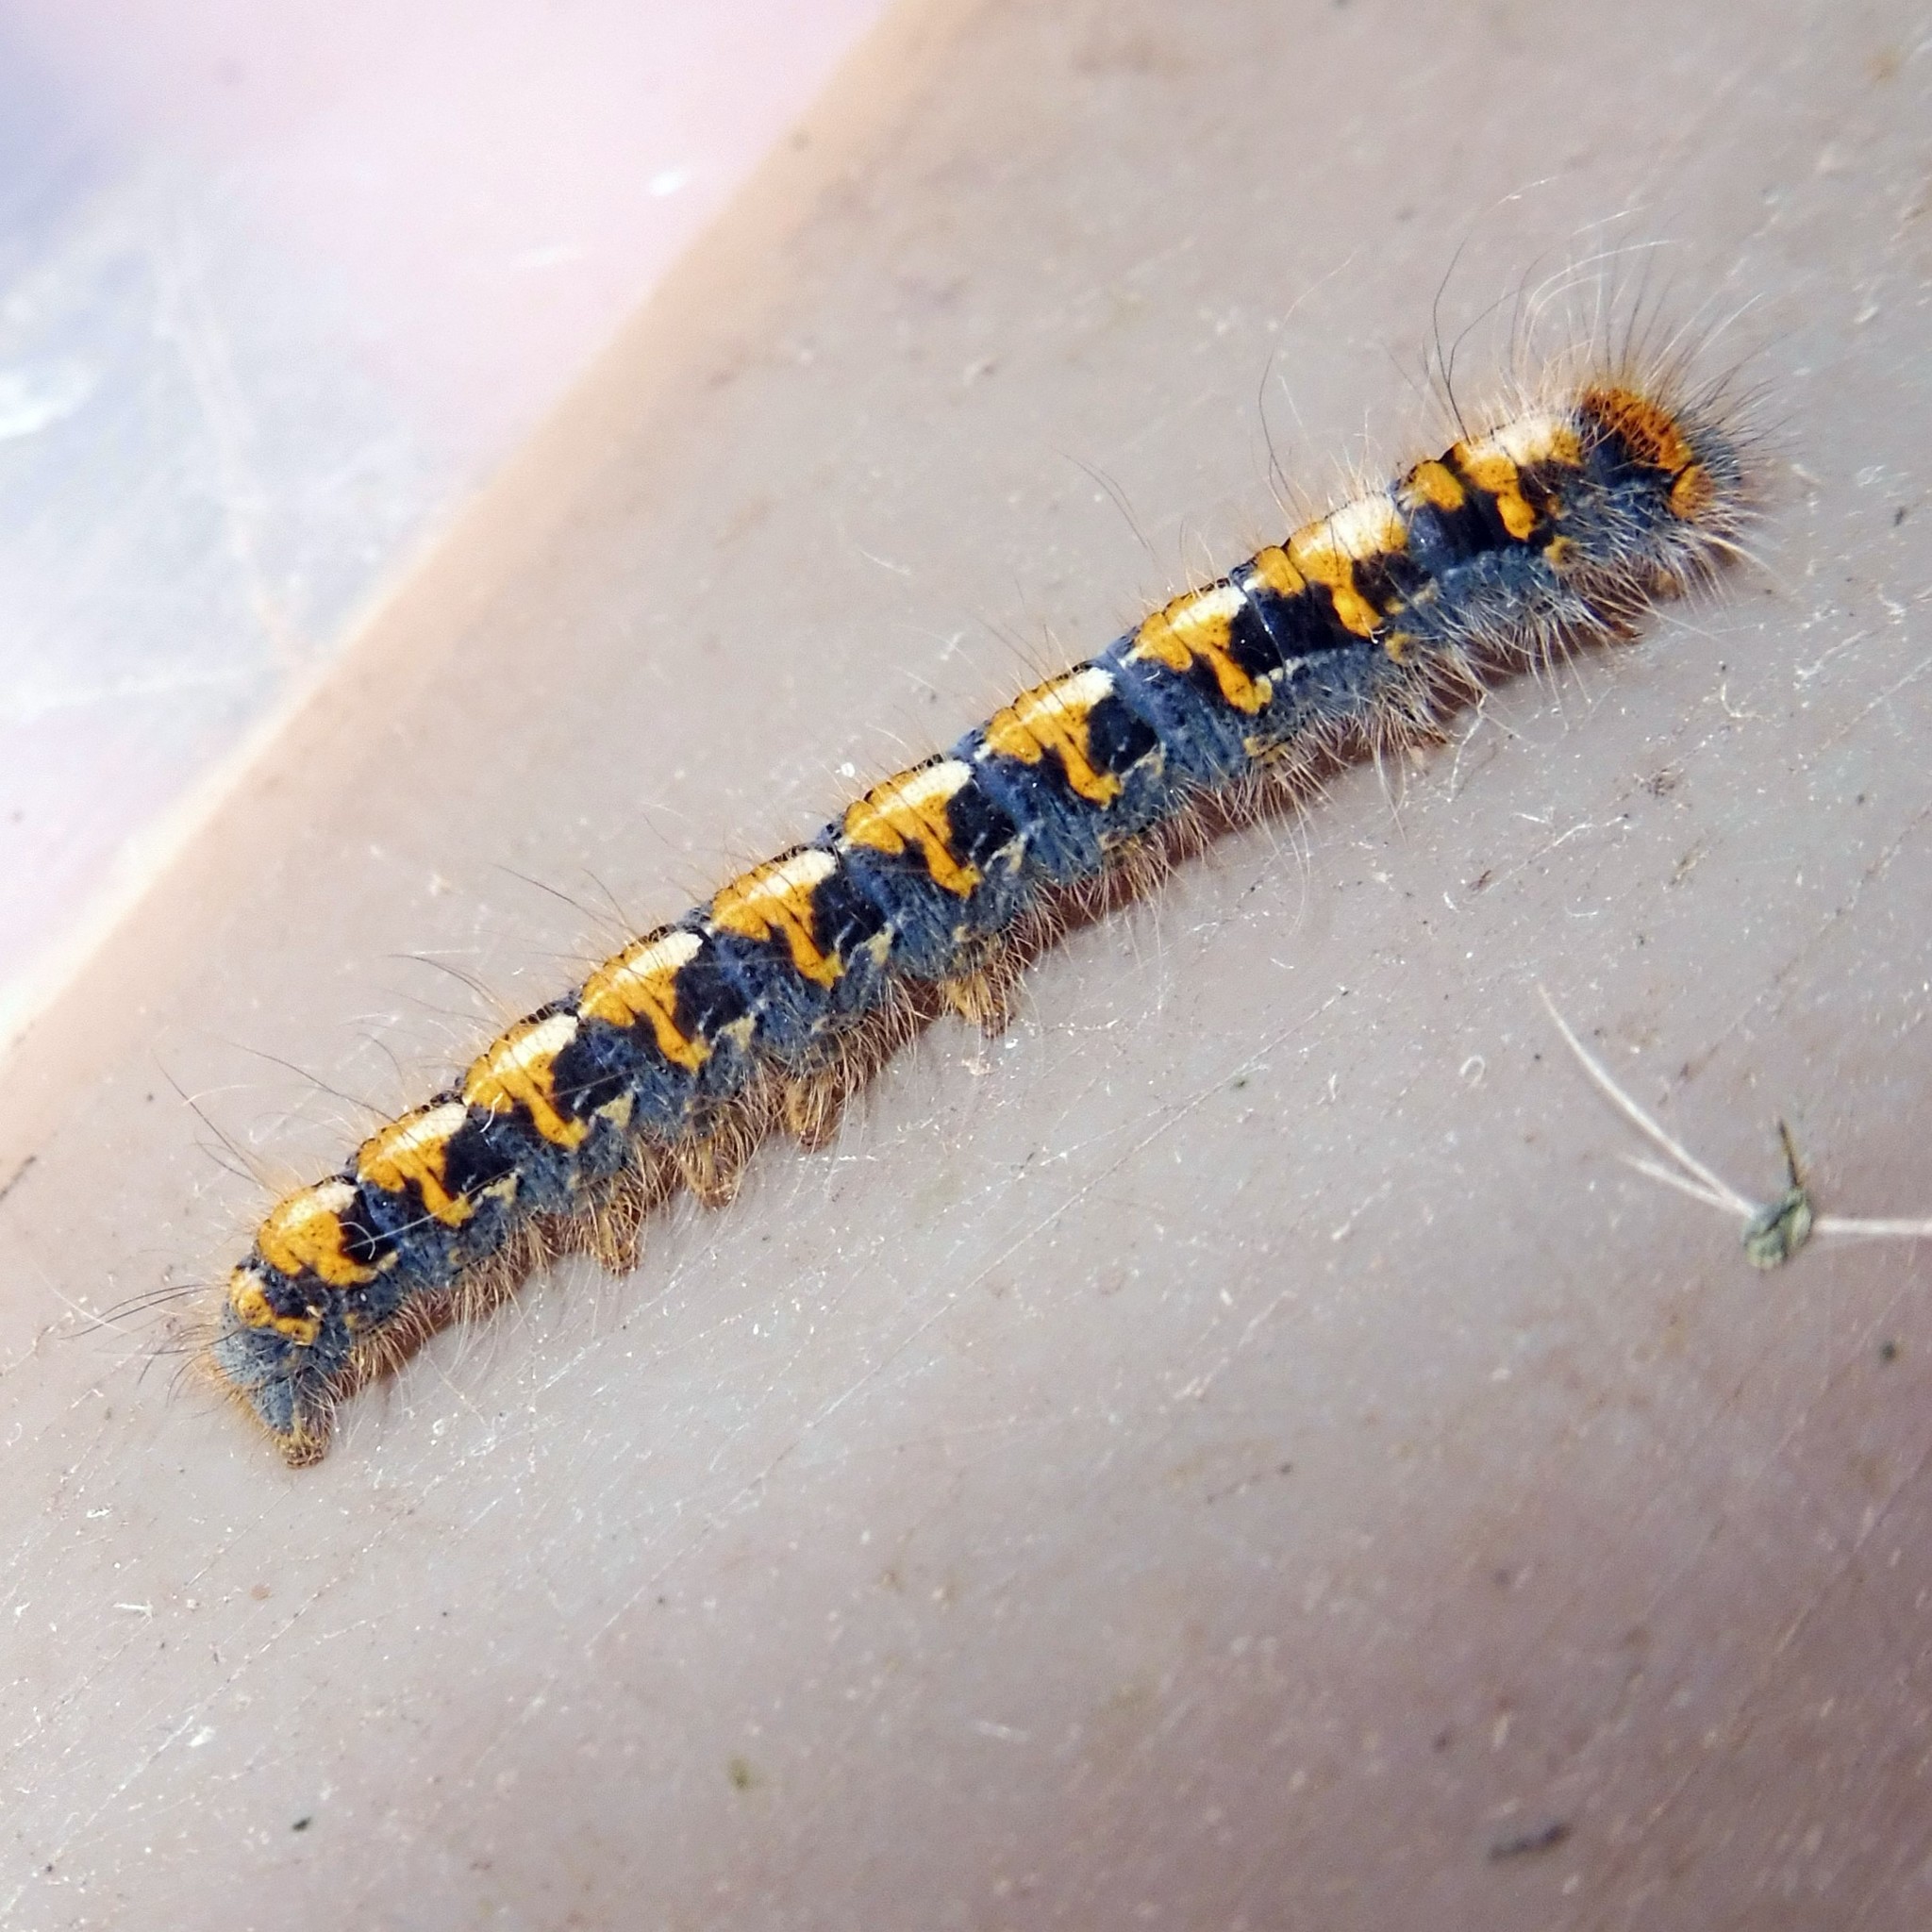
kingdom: Animalia
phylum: Arthropoda
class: Insecta
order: Lepidoptera
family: Lasiocampidae
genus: Lasiocampa
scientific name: Lasiocampa quercus
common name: Oak eggar
